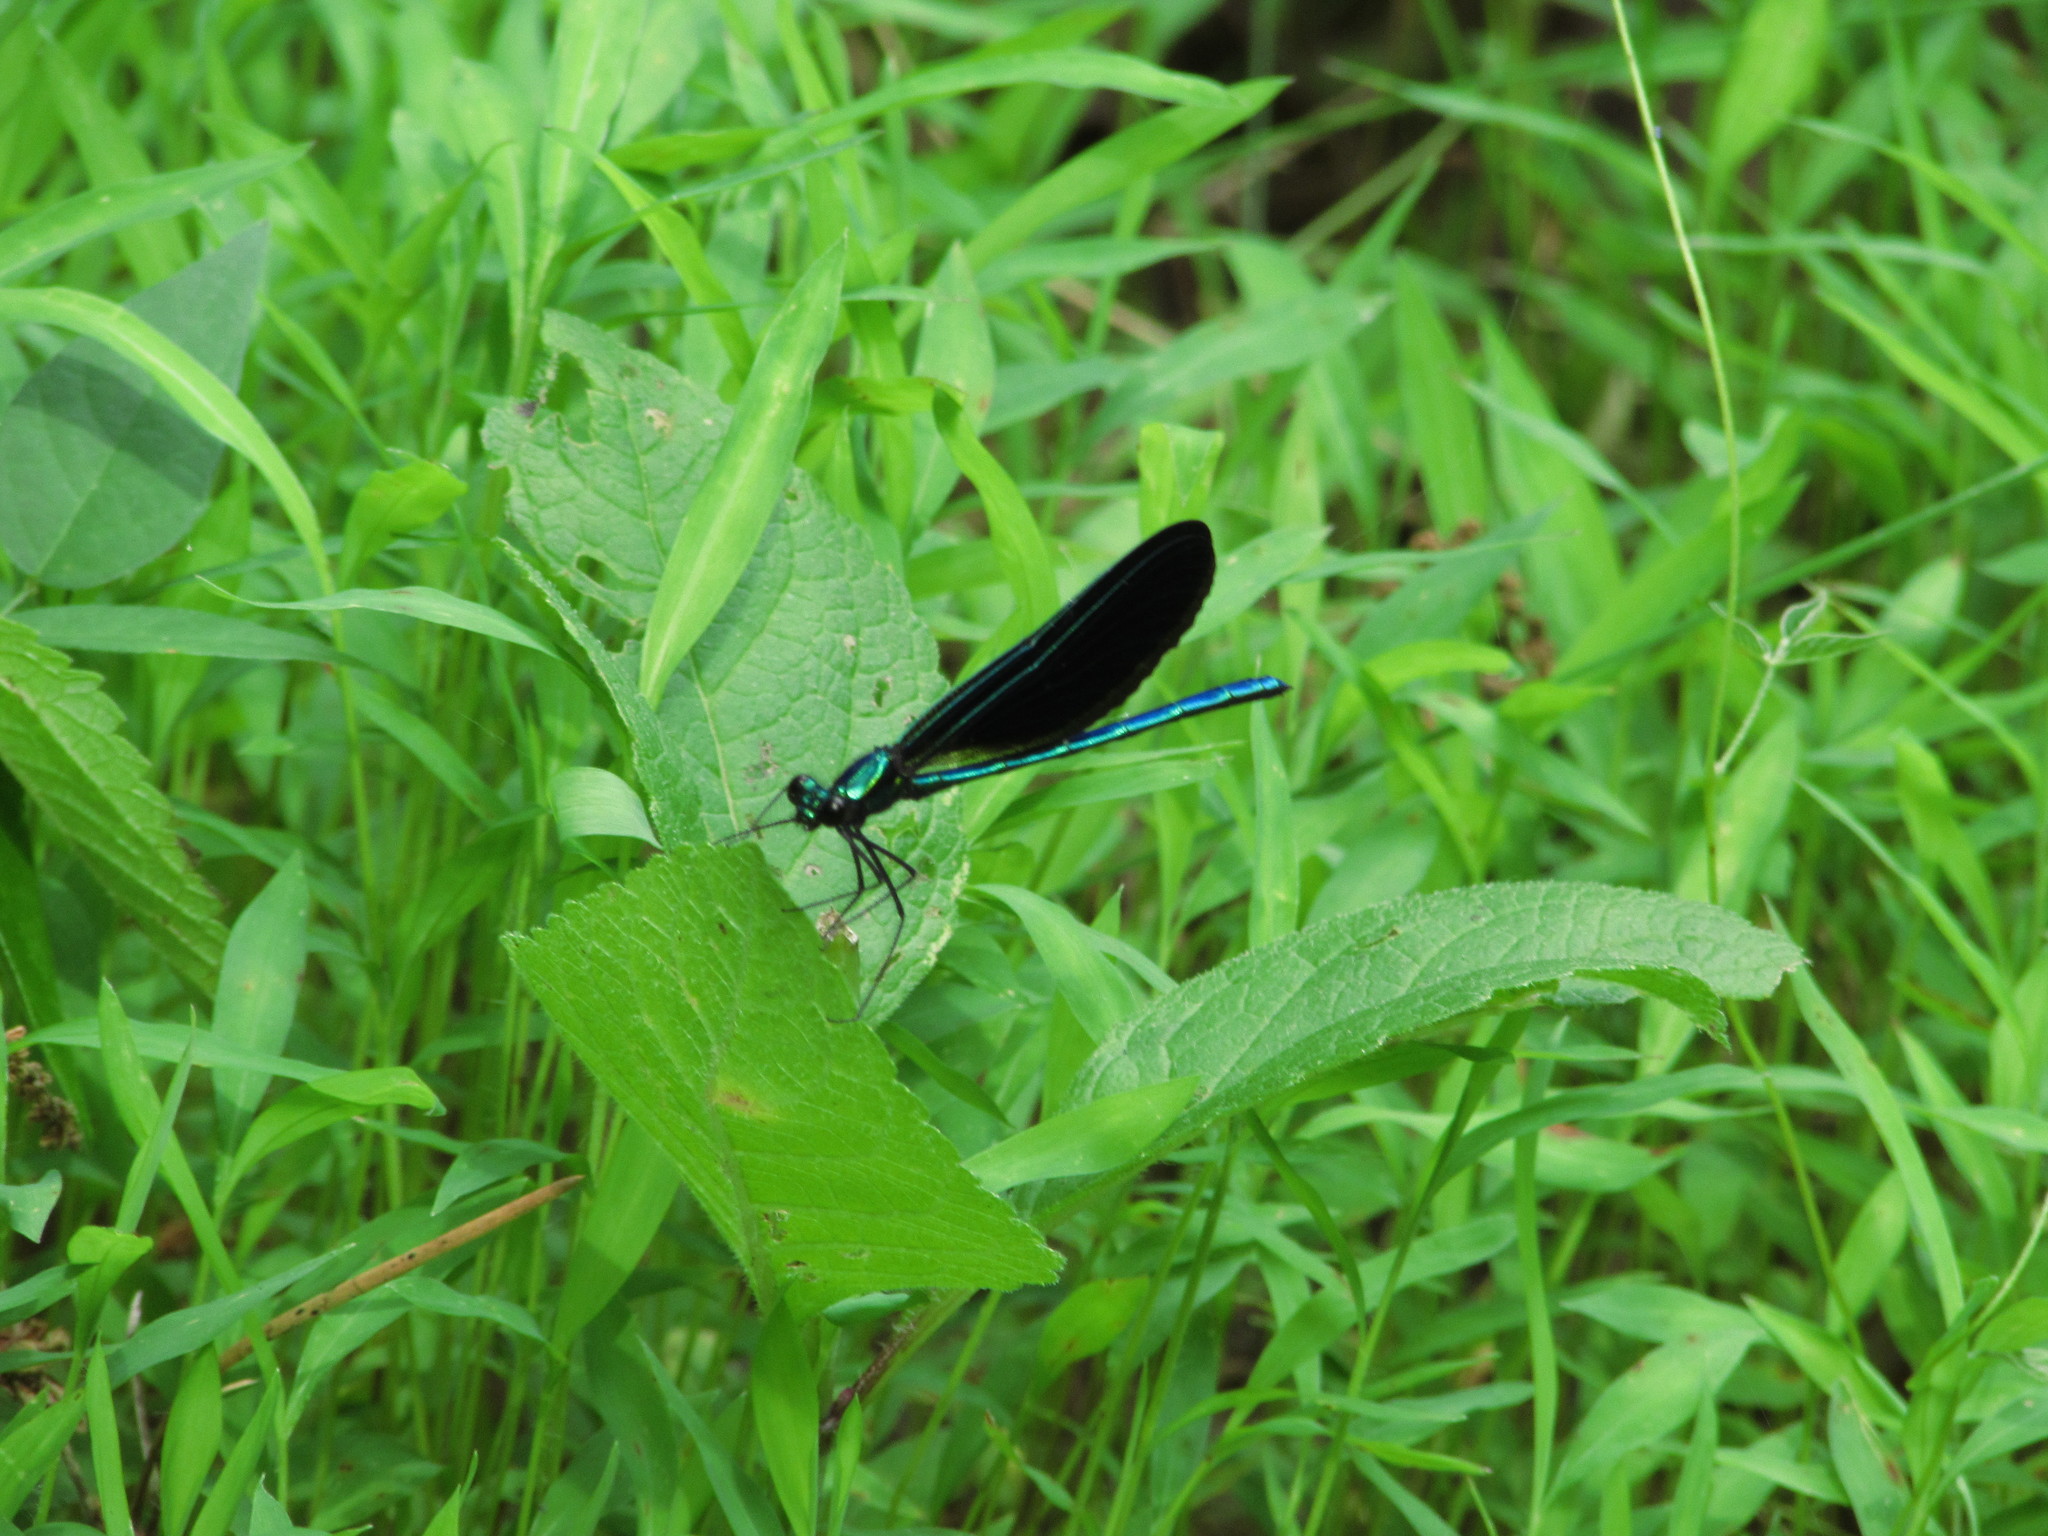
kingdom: Animalia
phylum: Arthropoda
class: Insecta
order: Odonata
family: Calopterygidae
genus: Calopteryx
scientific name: Calopteryx maculata
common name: Ebony jewelwing
